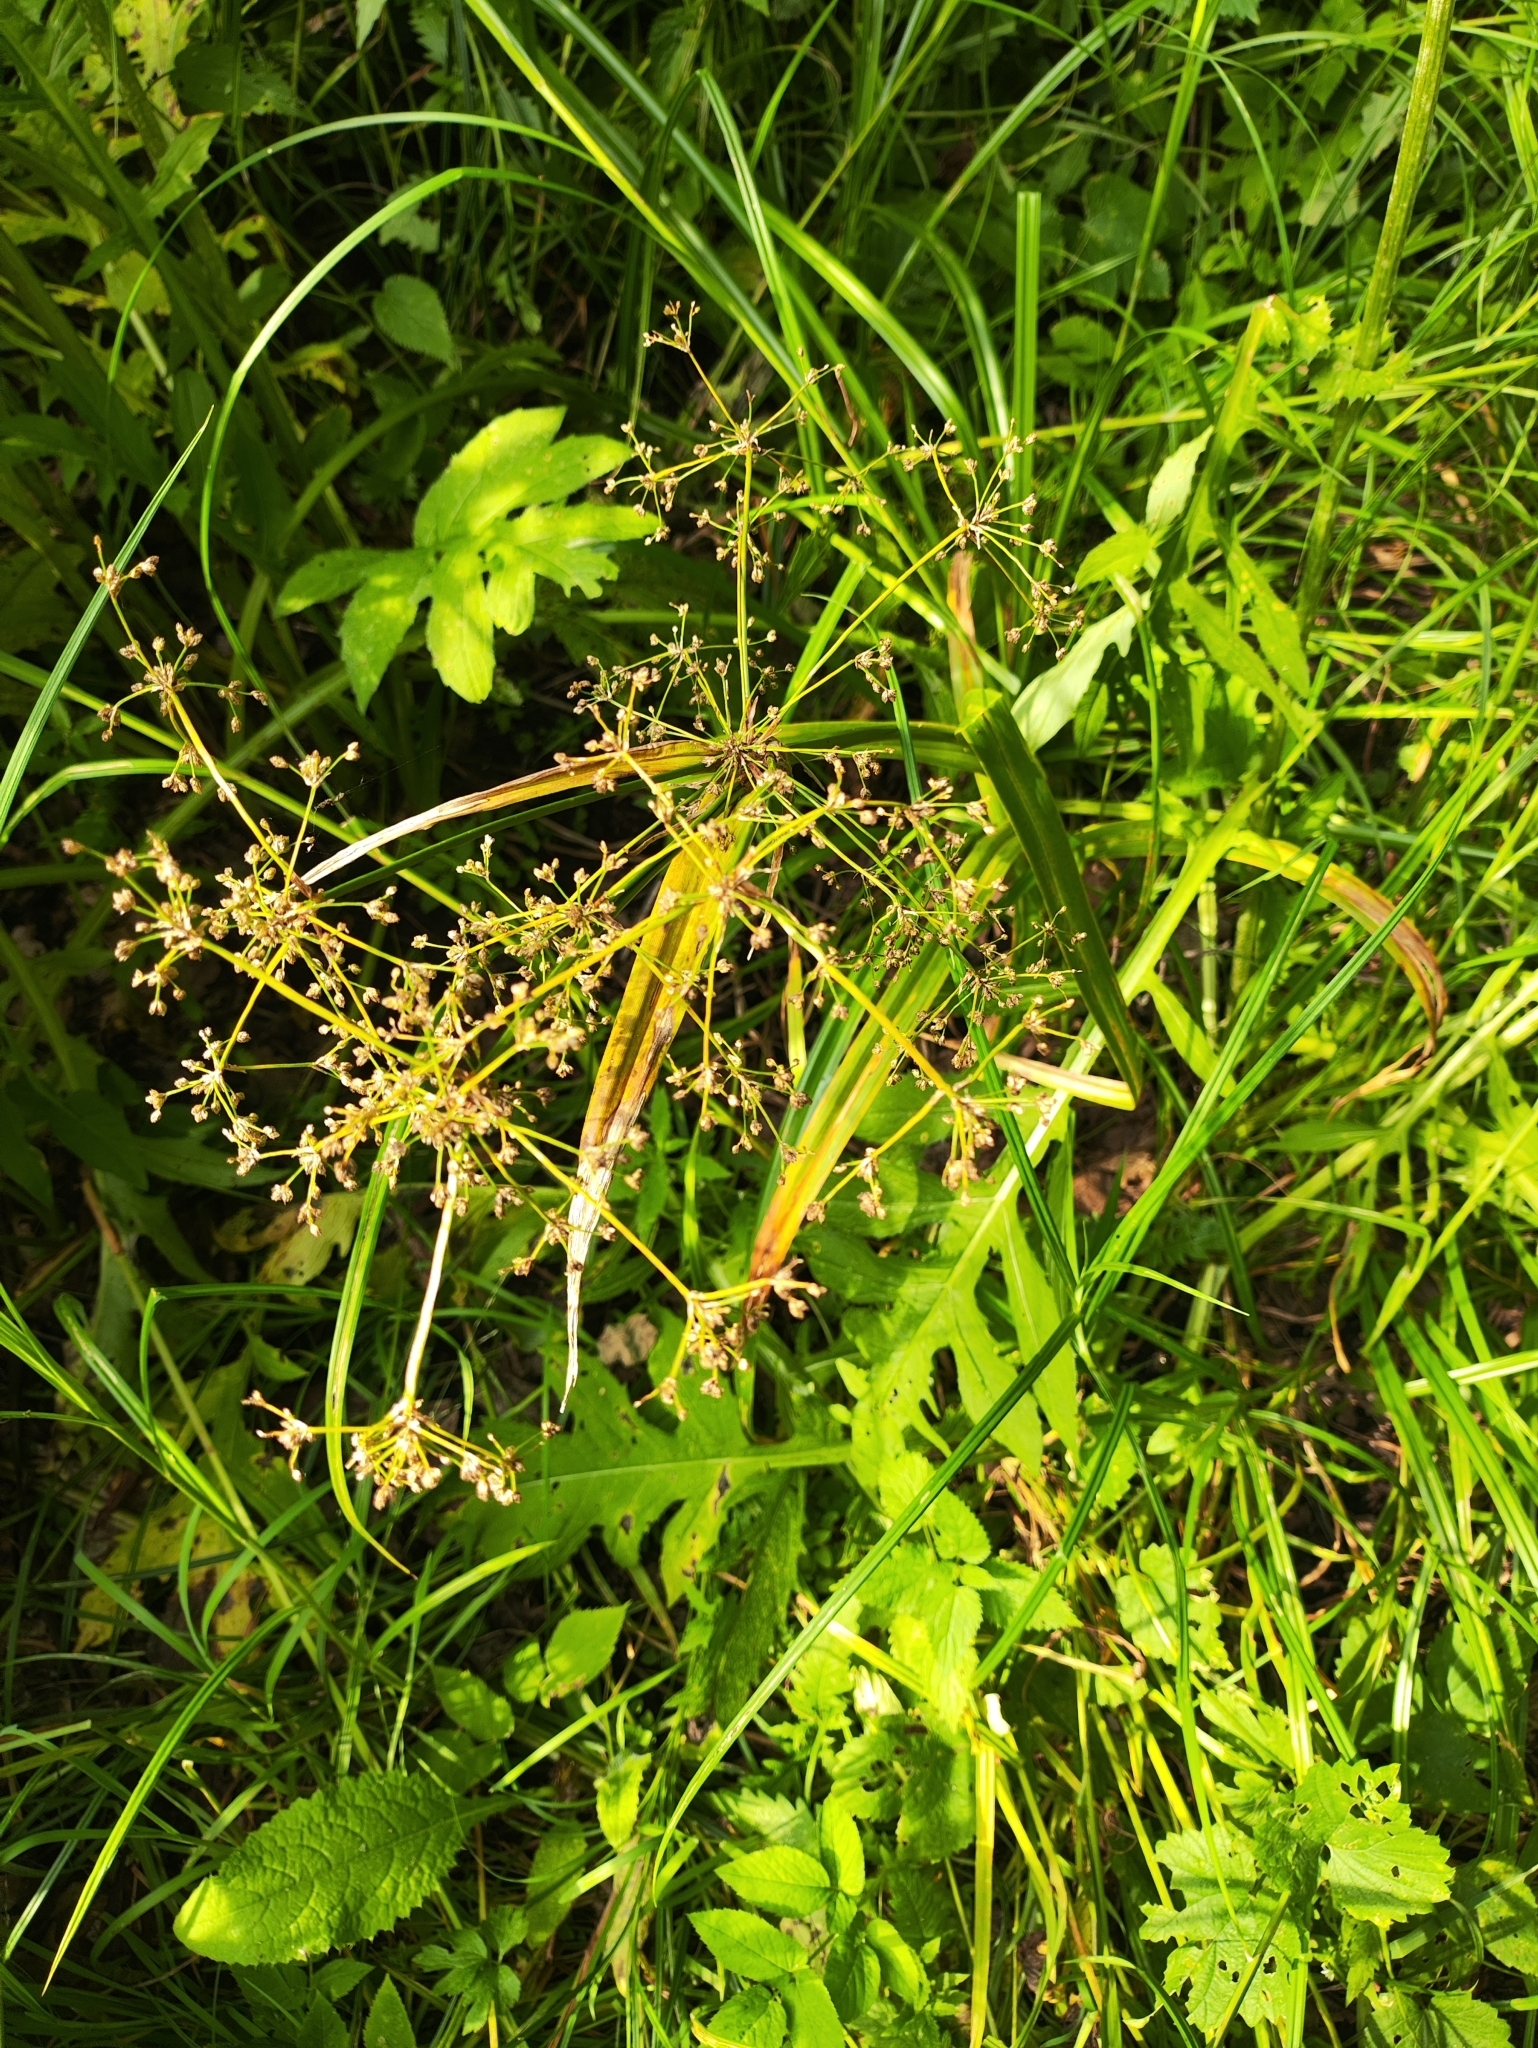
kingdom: Plantae
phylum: Tracheophyta
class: Liliopsida
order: Poales
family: Cyperaceae
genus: Scirpus
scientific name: Scirpus sylvaticus
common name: Wood club-rush
